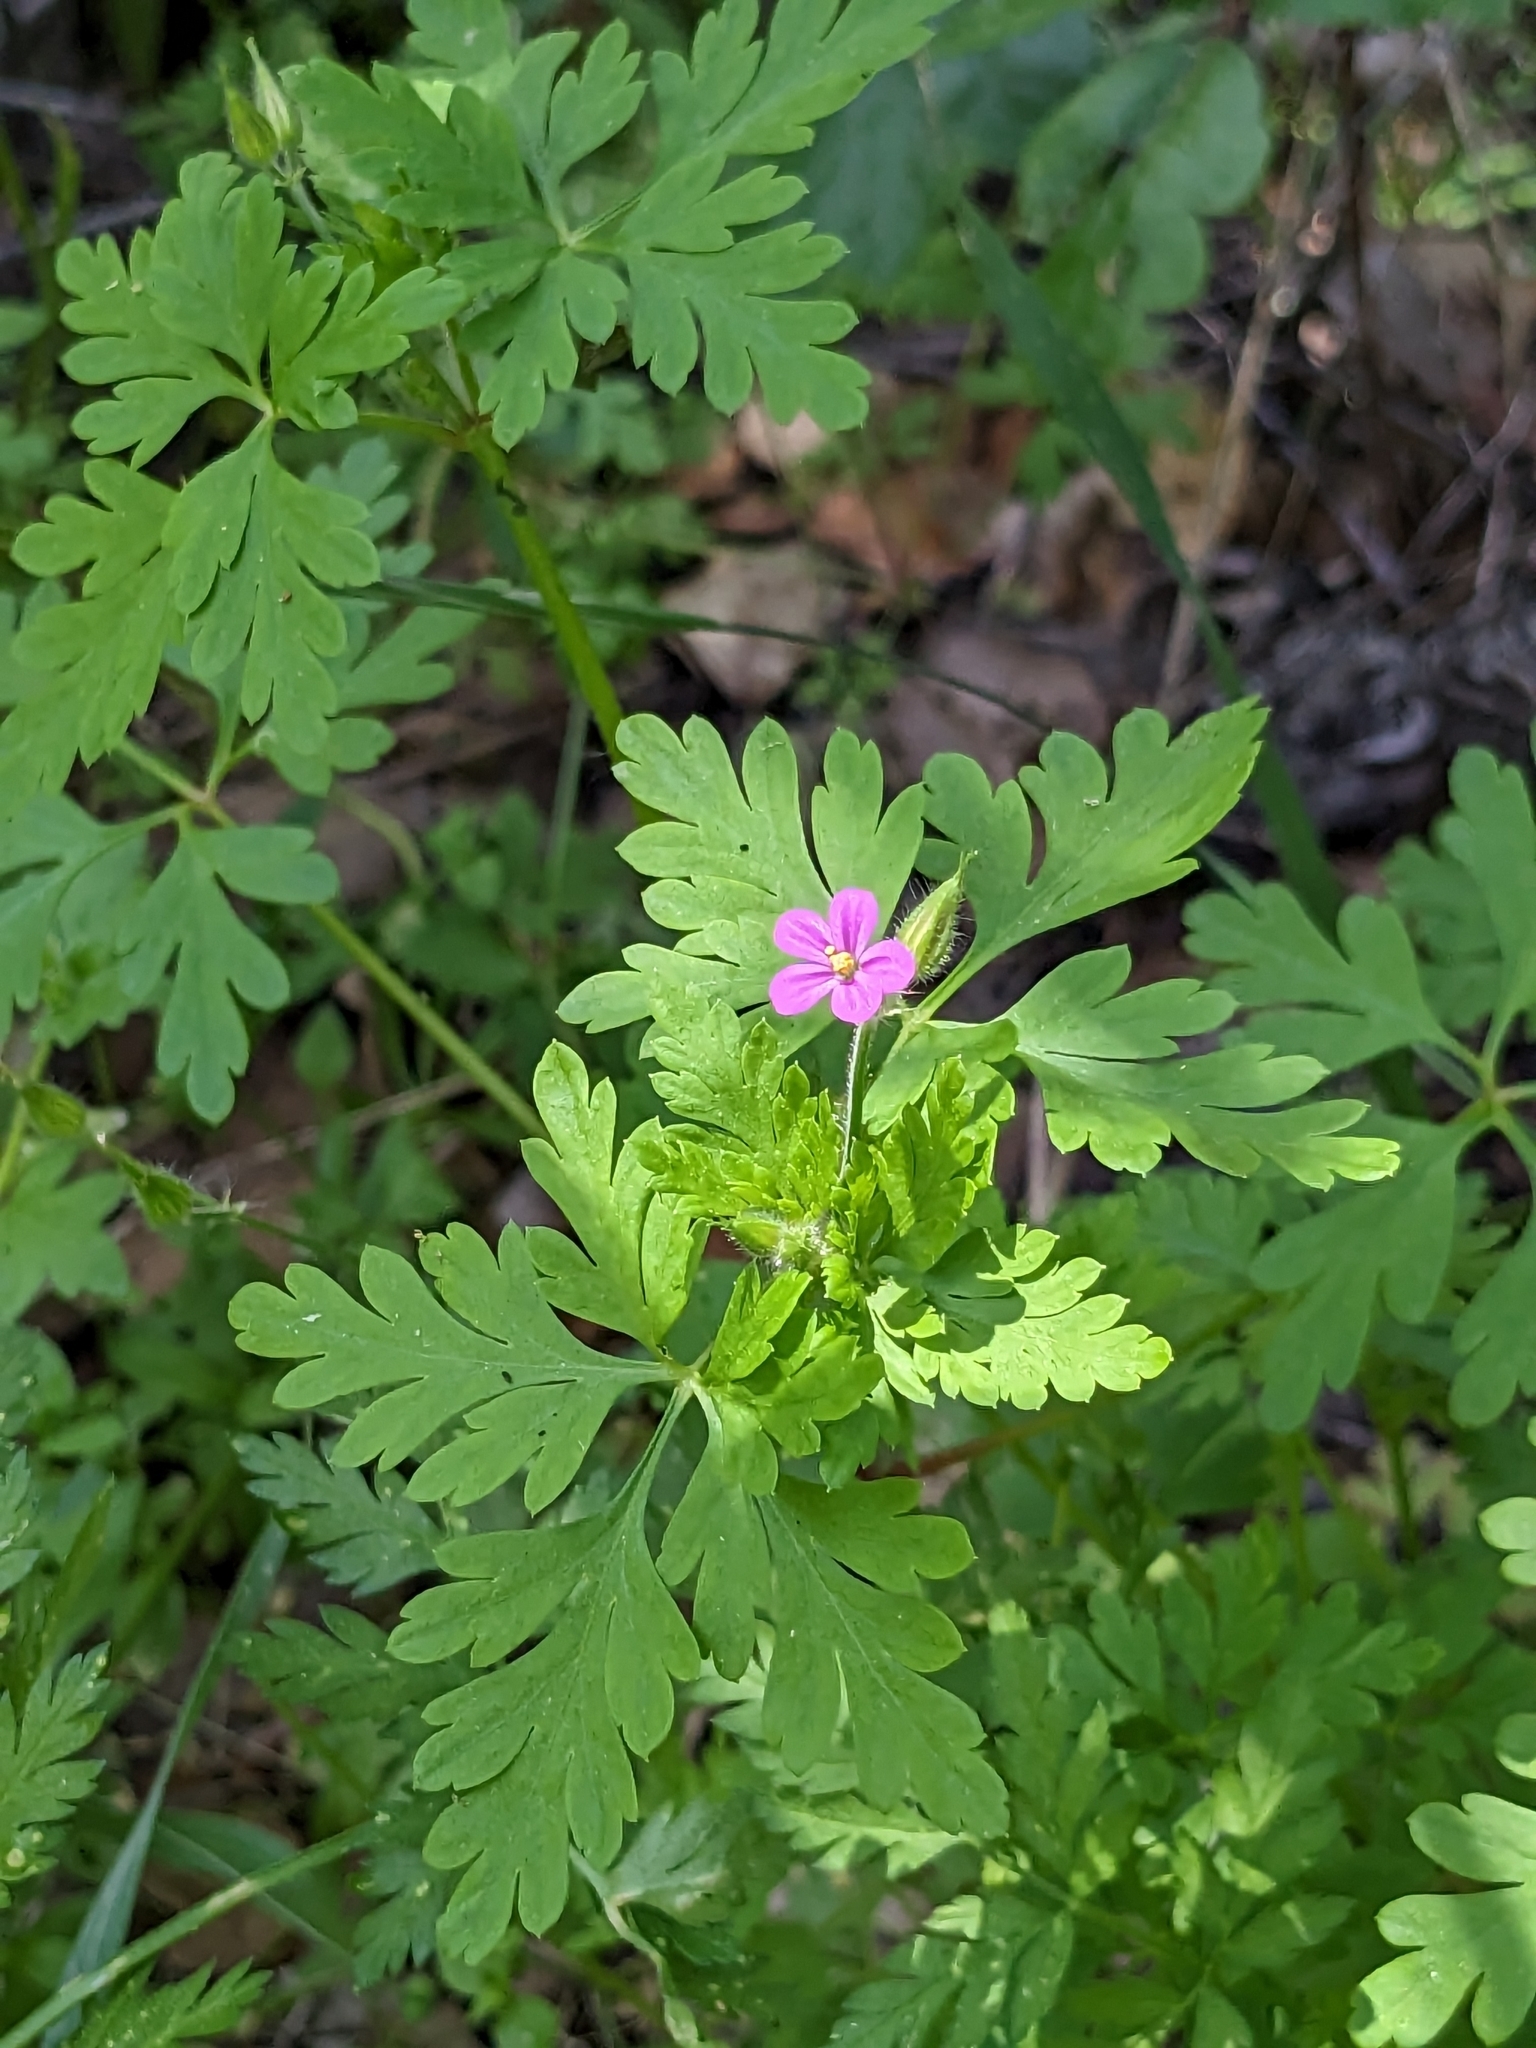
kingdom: Plantae
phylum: Tracheophyta
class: Magnoliopsida
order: Geraniales
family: Geraniaceae
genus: Geranium
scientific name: Geranium purpureum
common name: Little-robin
